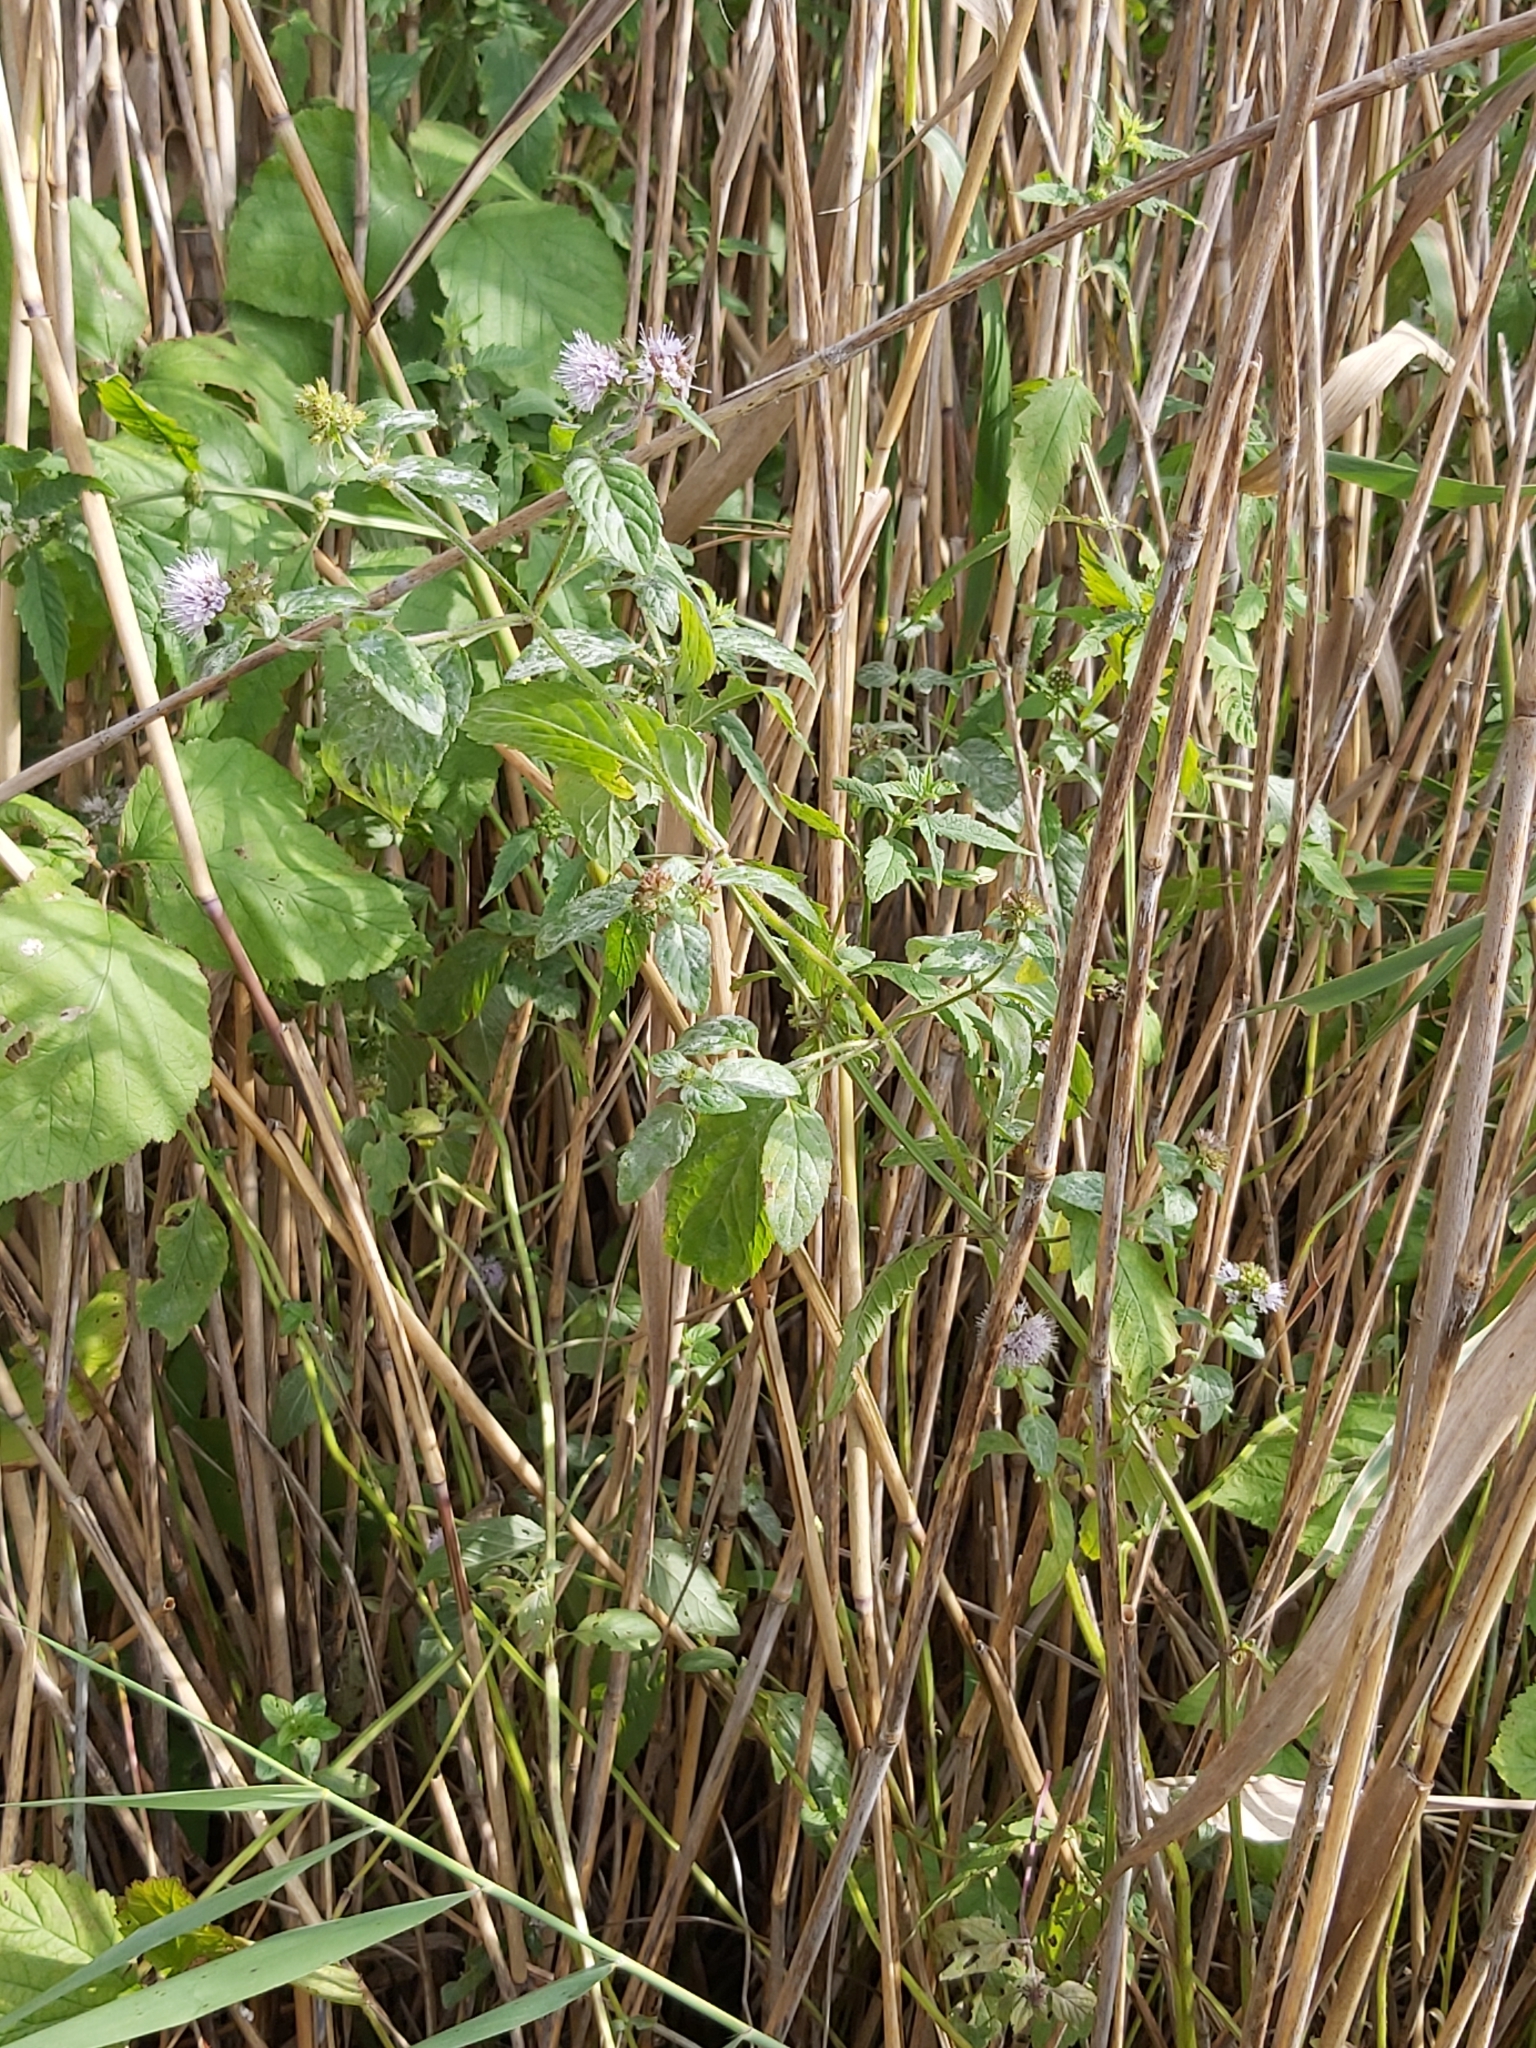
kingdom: Plantae
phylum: Tracheophyta
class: Magnoliopsida
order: Lamiales
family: Lamiaceae
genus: Mentha
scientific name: Mentha aquatica
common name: Water mint
